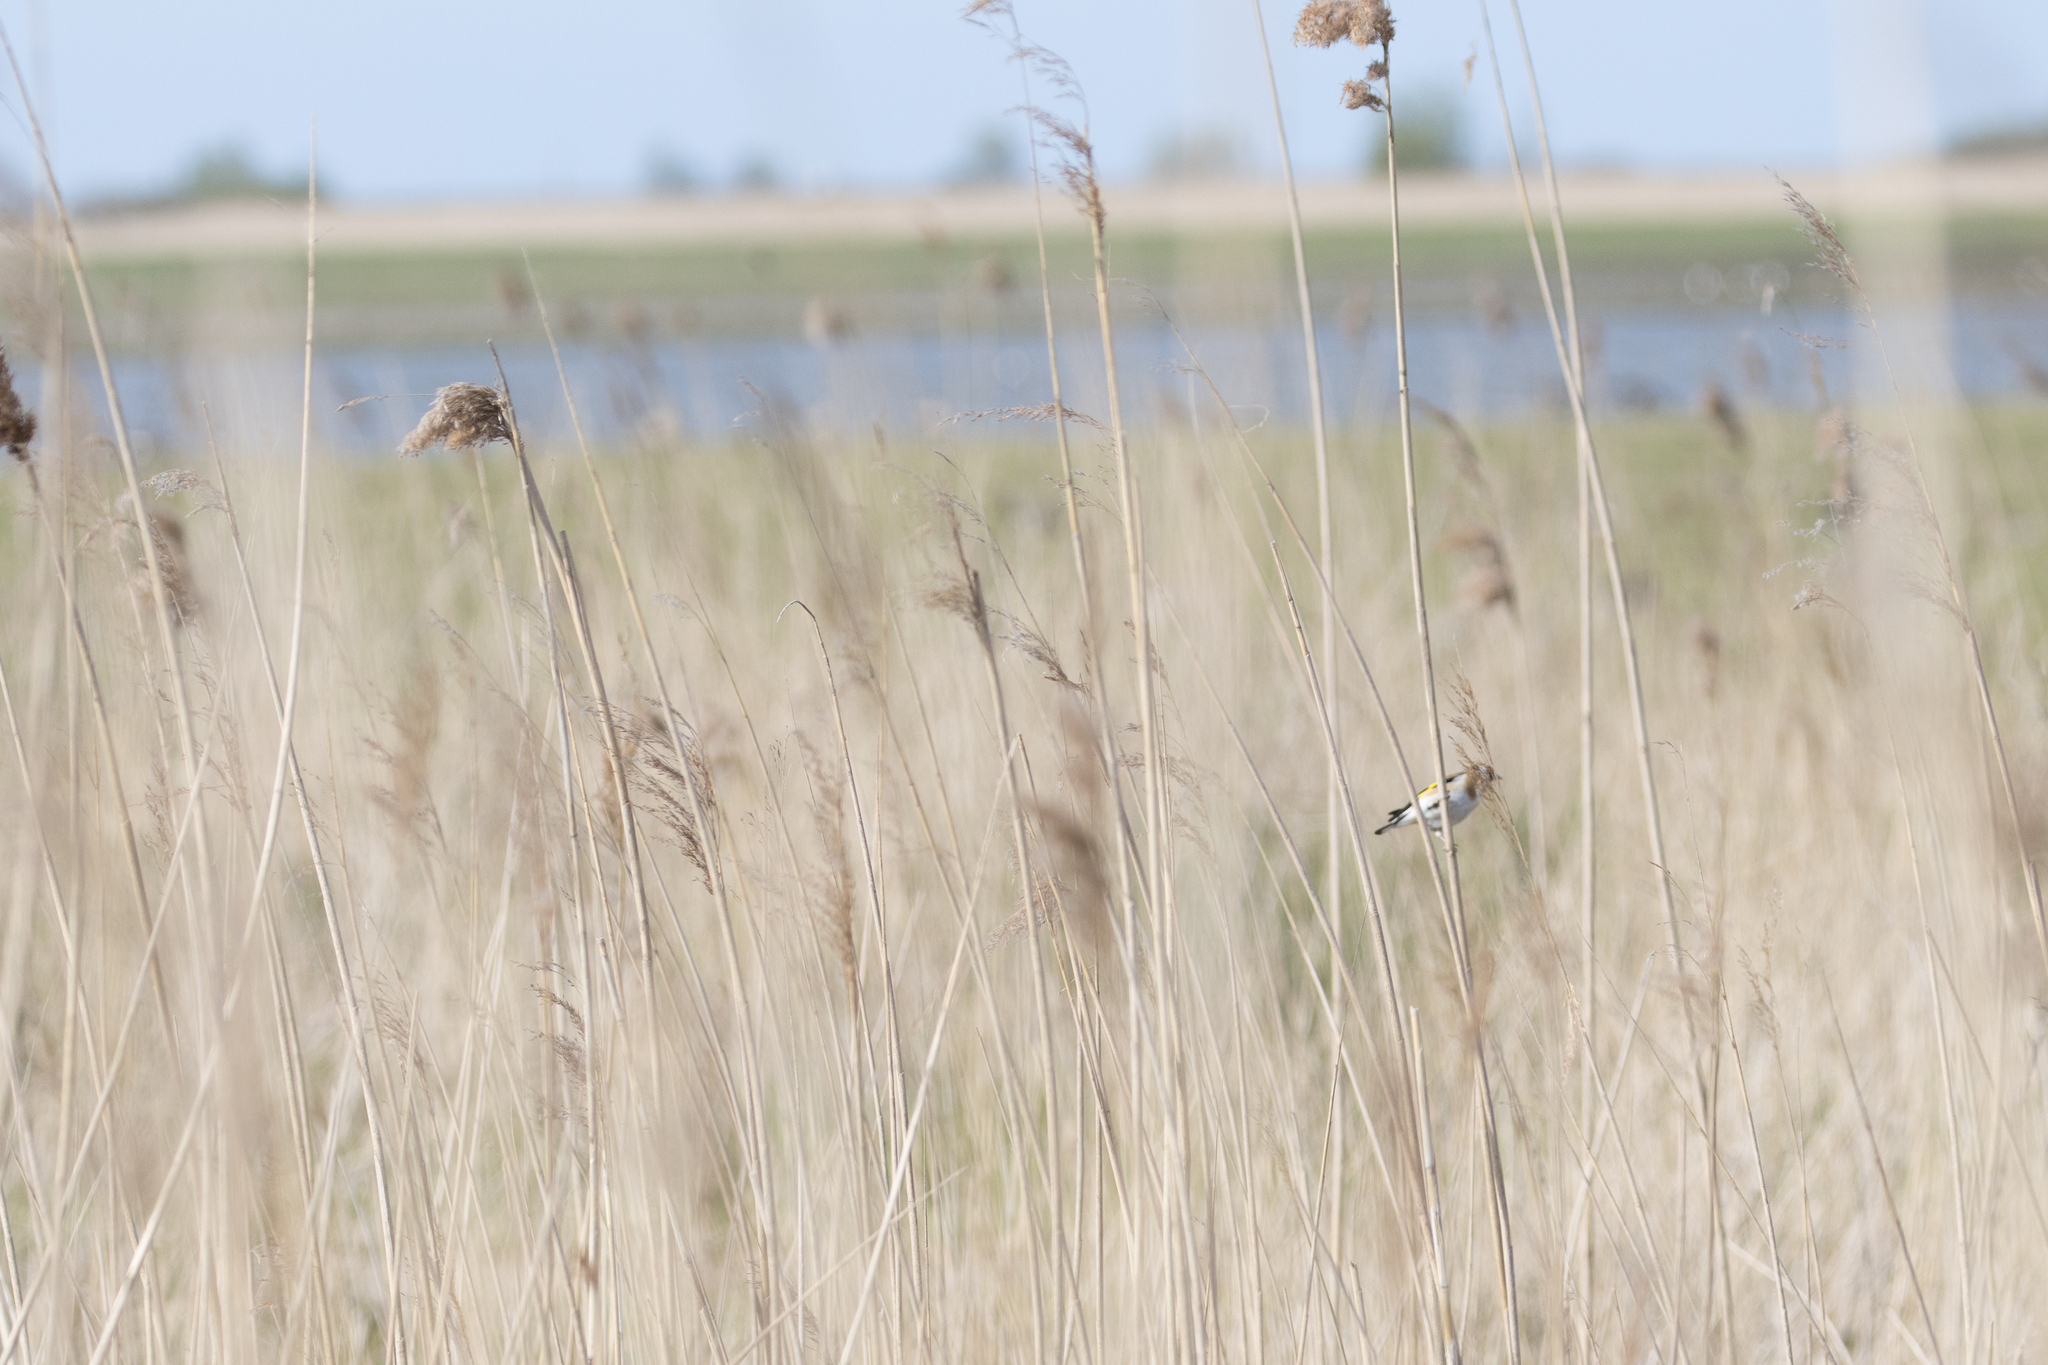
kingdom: Animalia
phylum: Chordata
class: Aves
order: Passeriformes
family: Fringillidae
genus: Carduelis
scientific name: Carduelis carduelis
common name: European goldfinch
